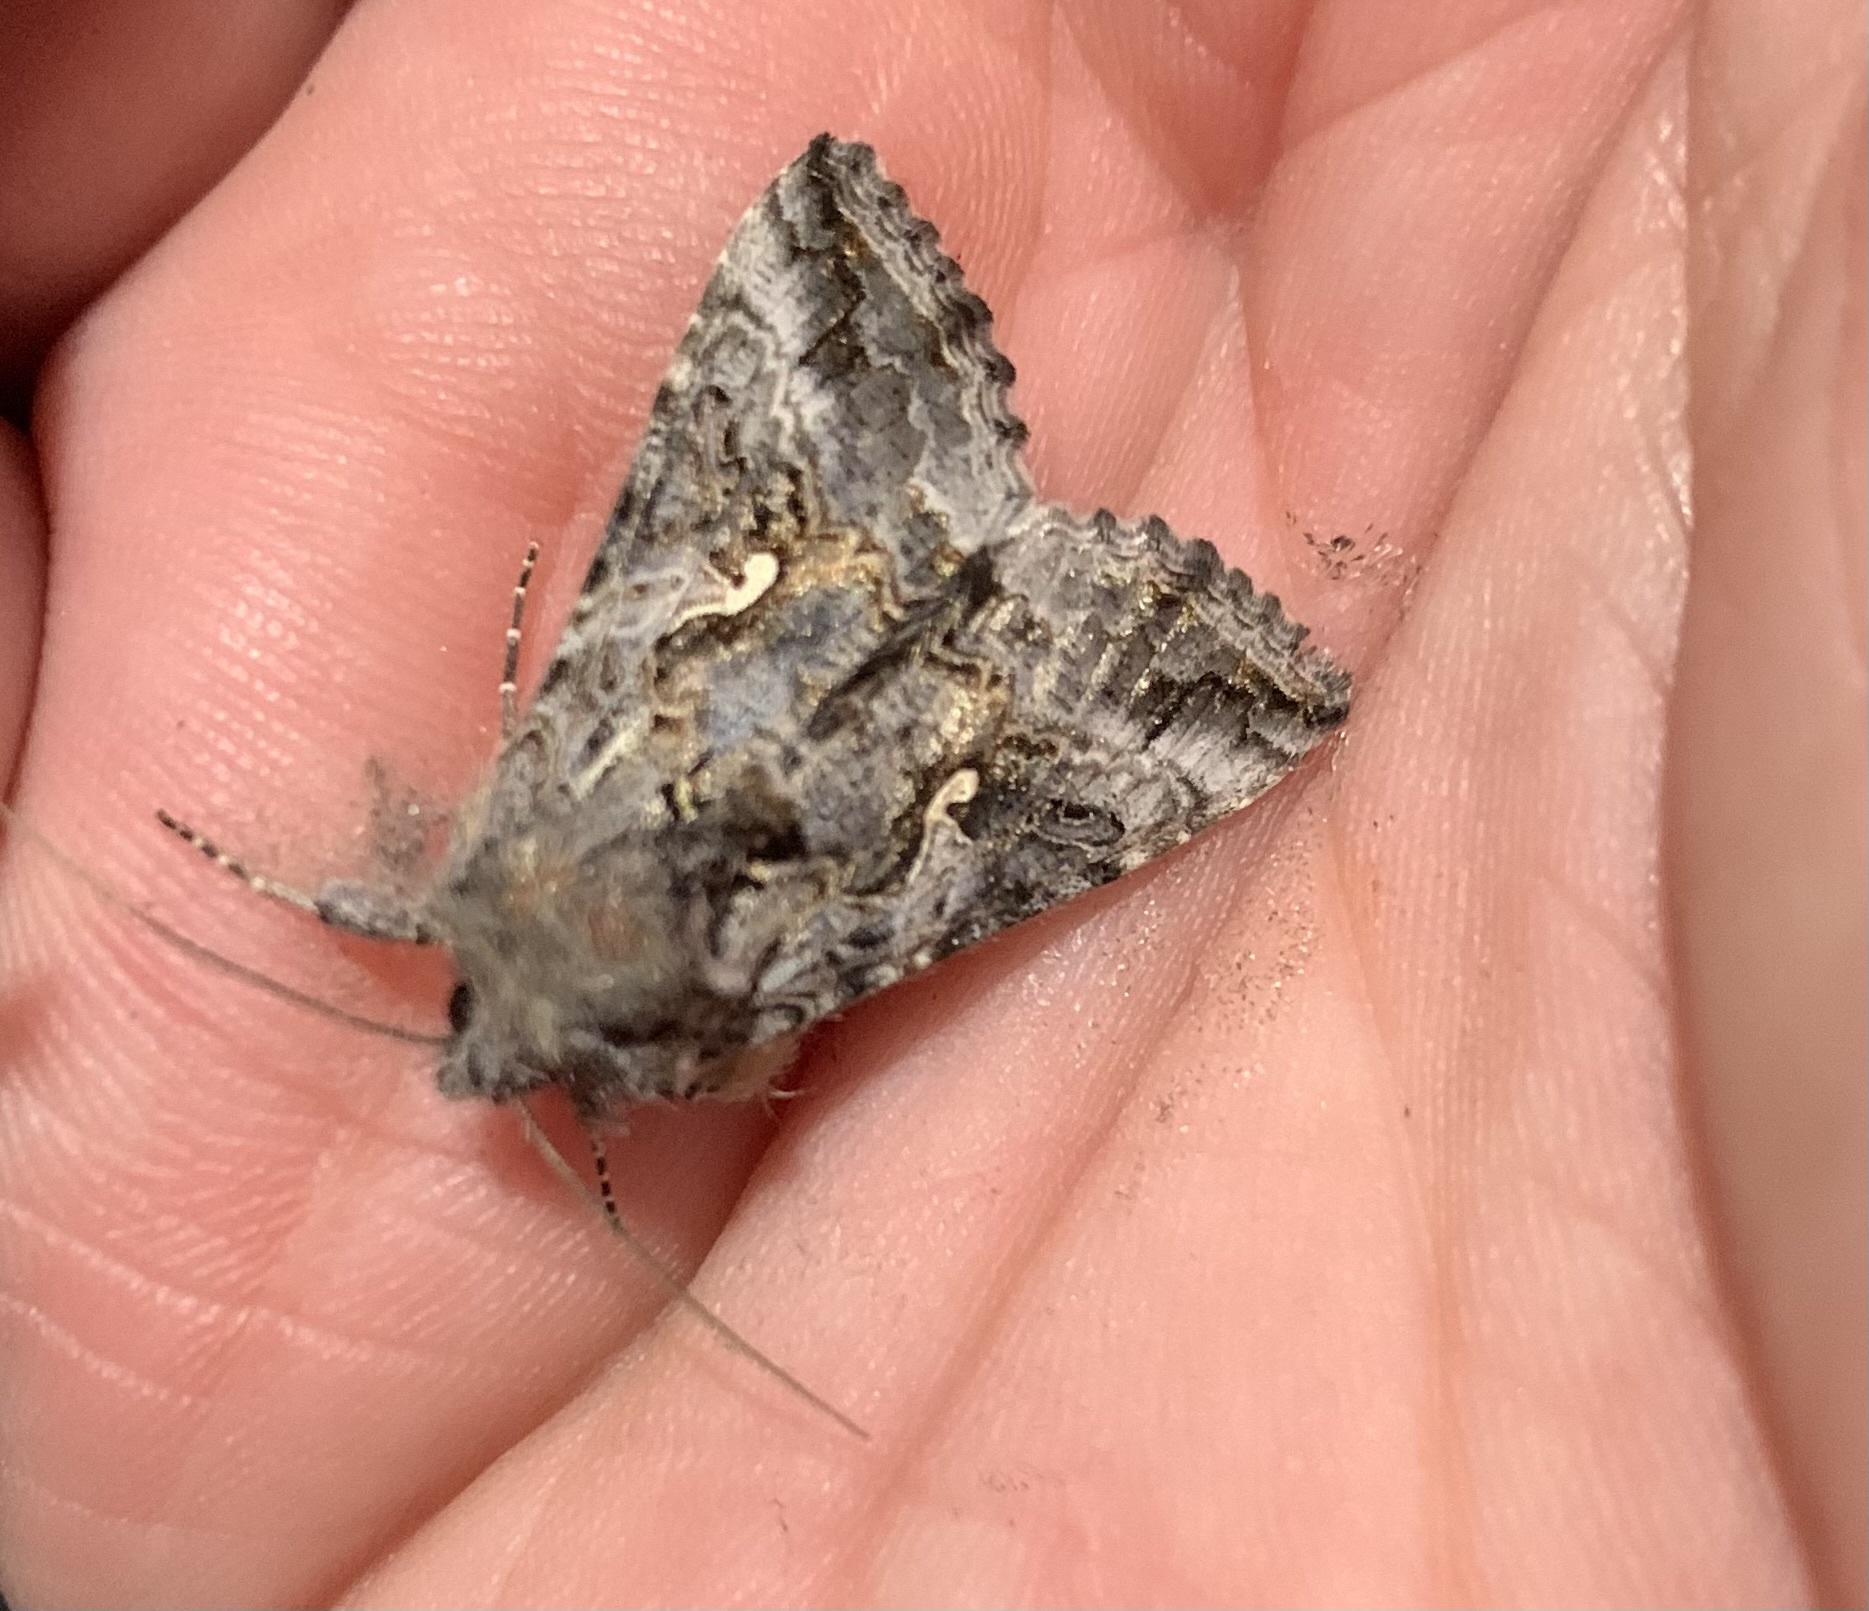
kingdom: Animalia
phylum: Arthropoda
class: Insecta
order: Lepidoptera
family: Noctuidae
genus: Autographa
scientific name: Autographa californica
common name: Alfalfa looper
